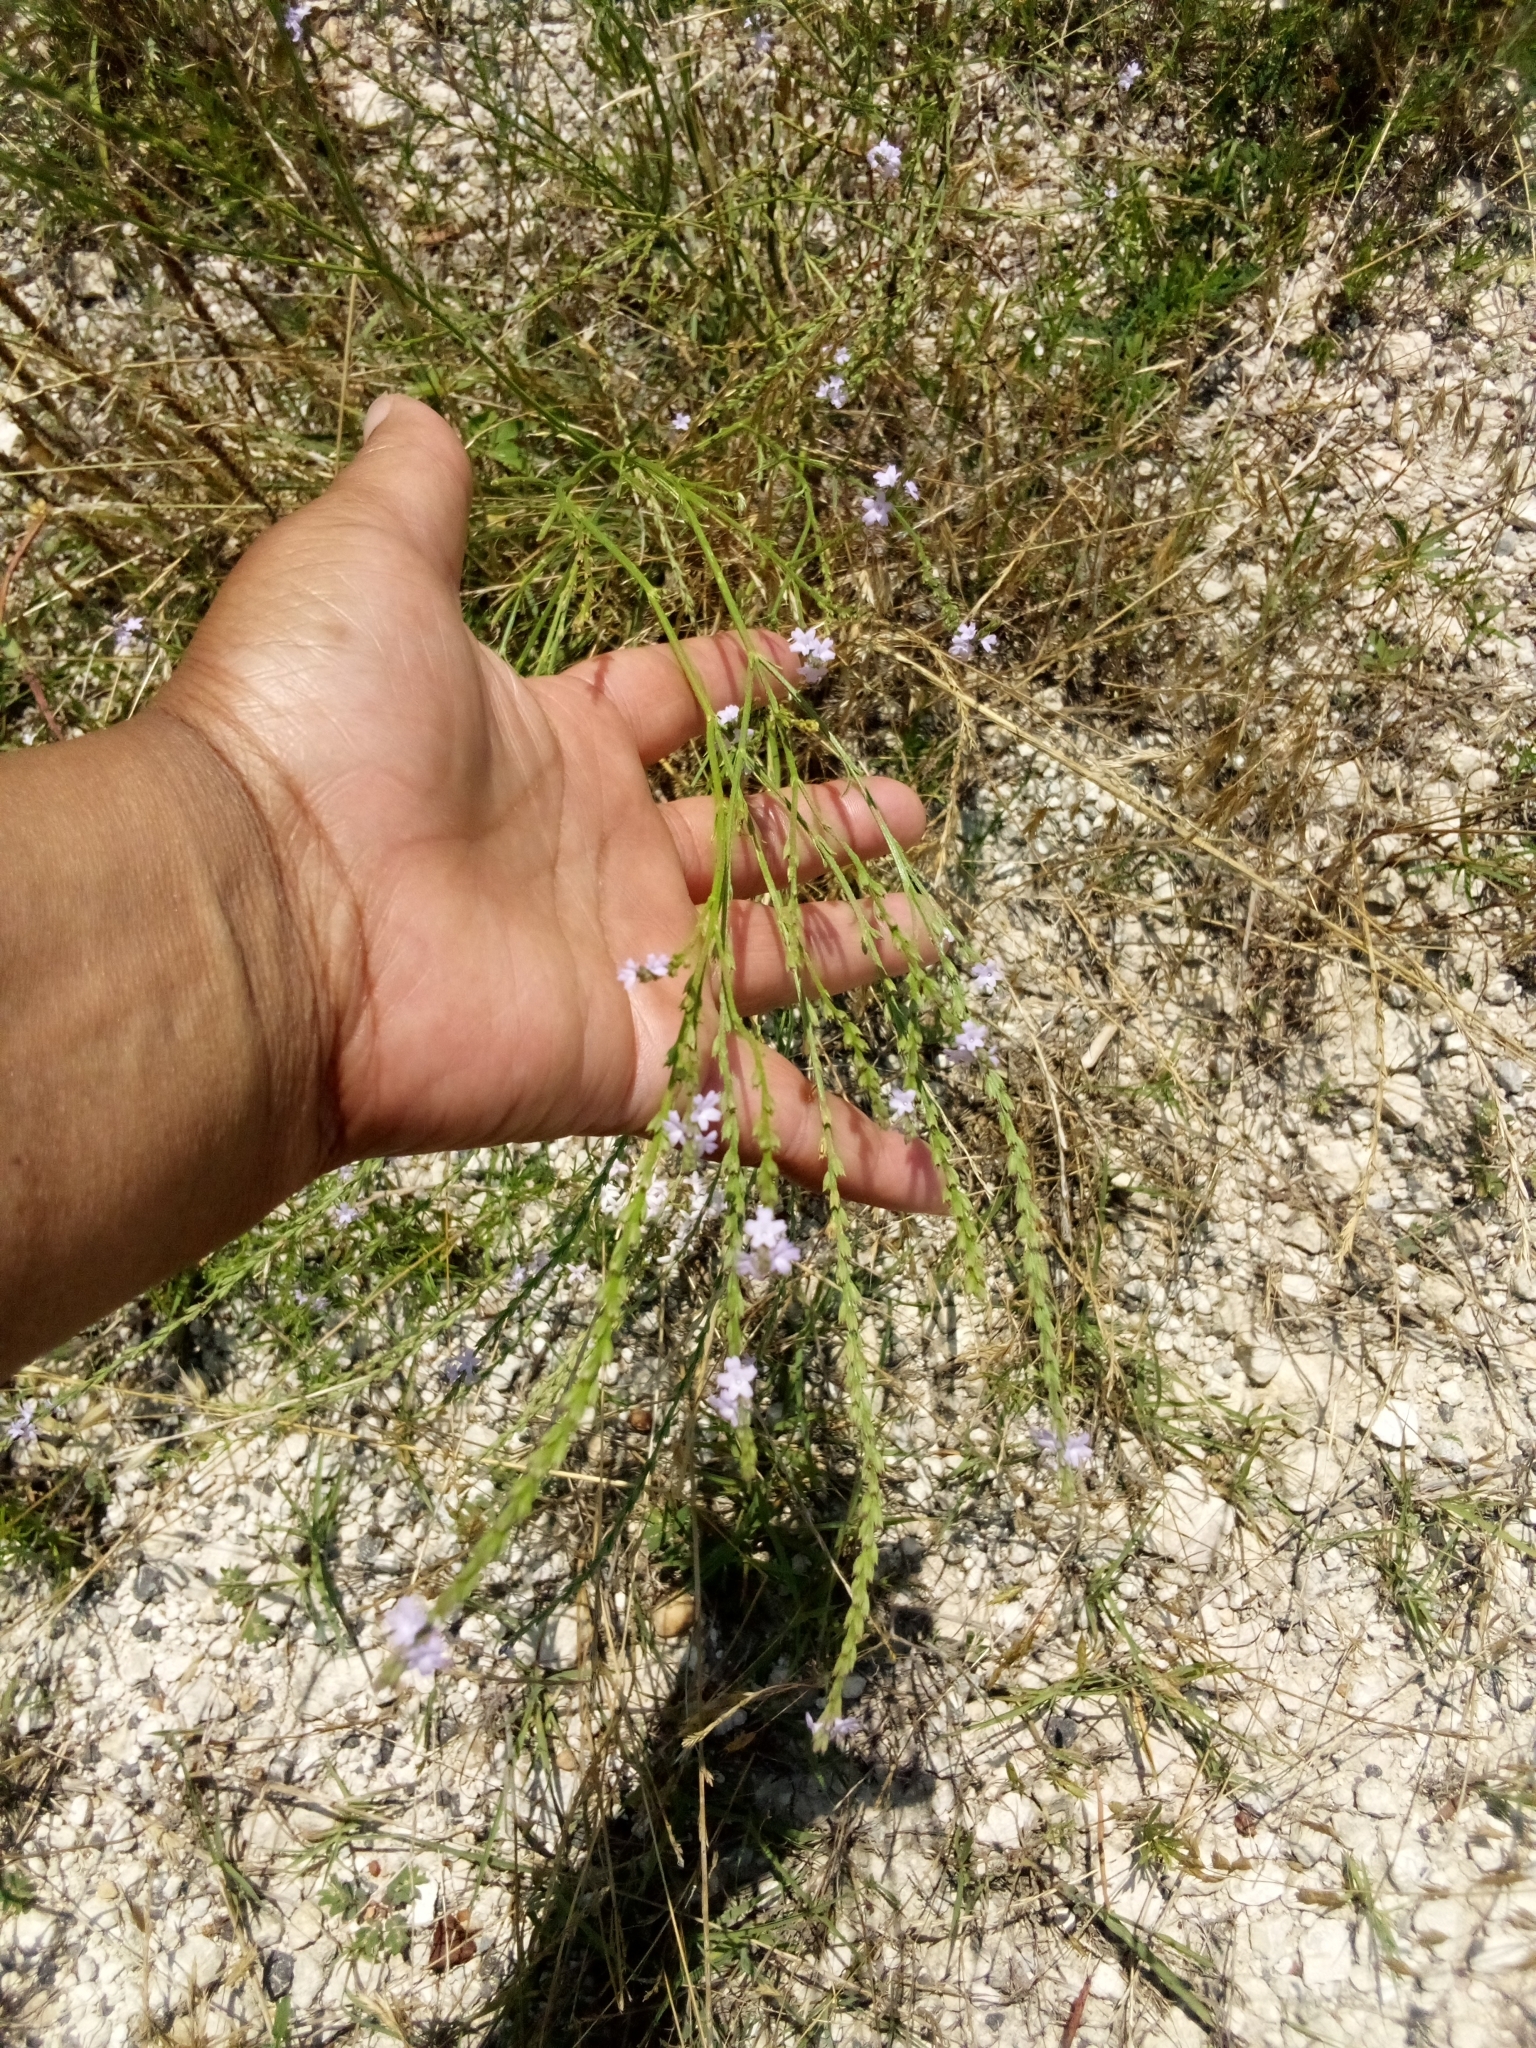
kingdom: Plantae
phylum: Tracheophyta
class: Magnoliopsida
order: Lamiales
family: Verbenaceae
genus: Verbena
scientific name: Verbena halei
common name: Texas vervain
